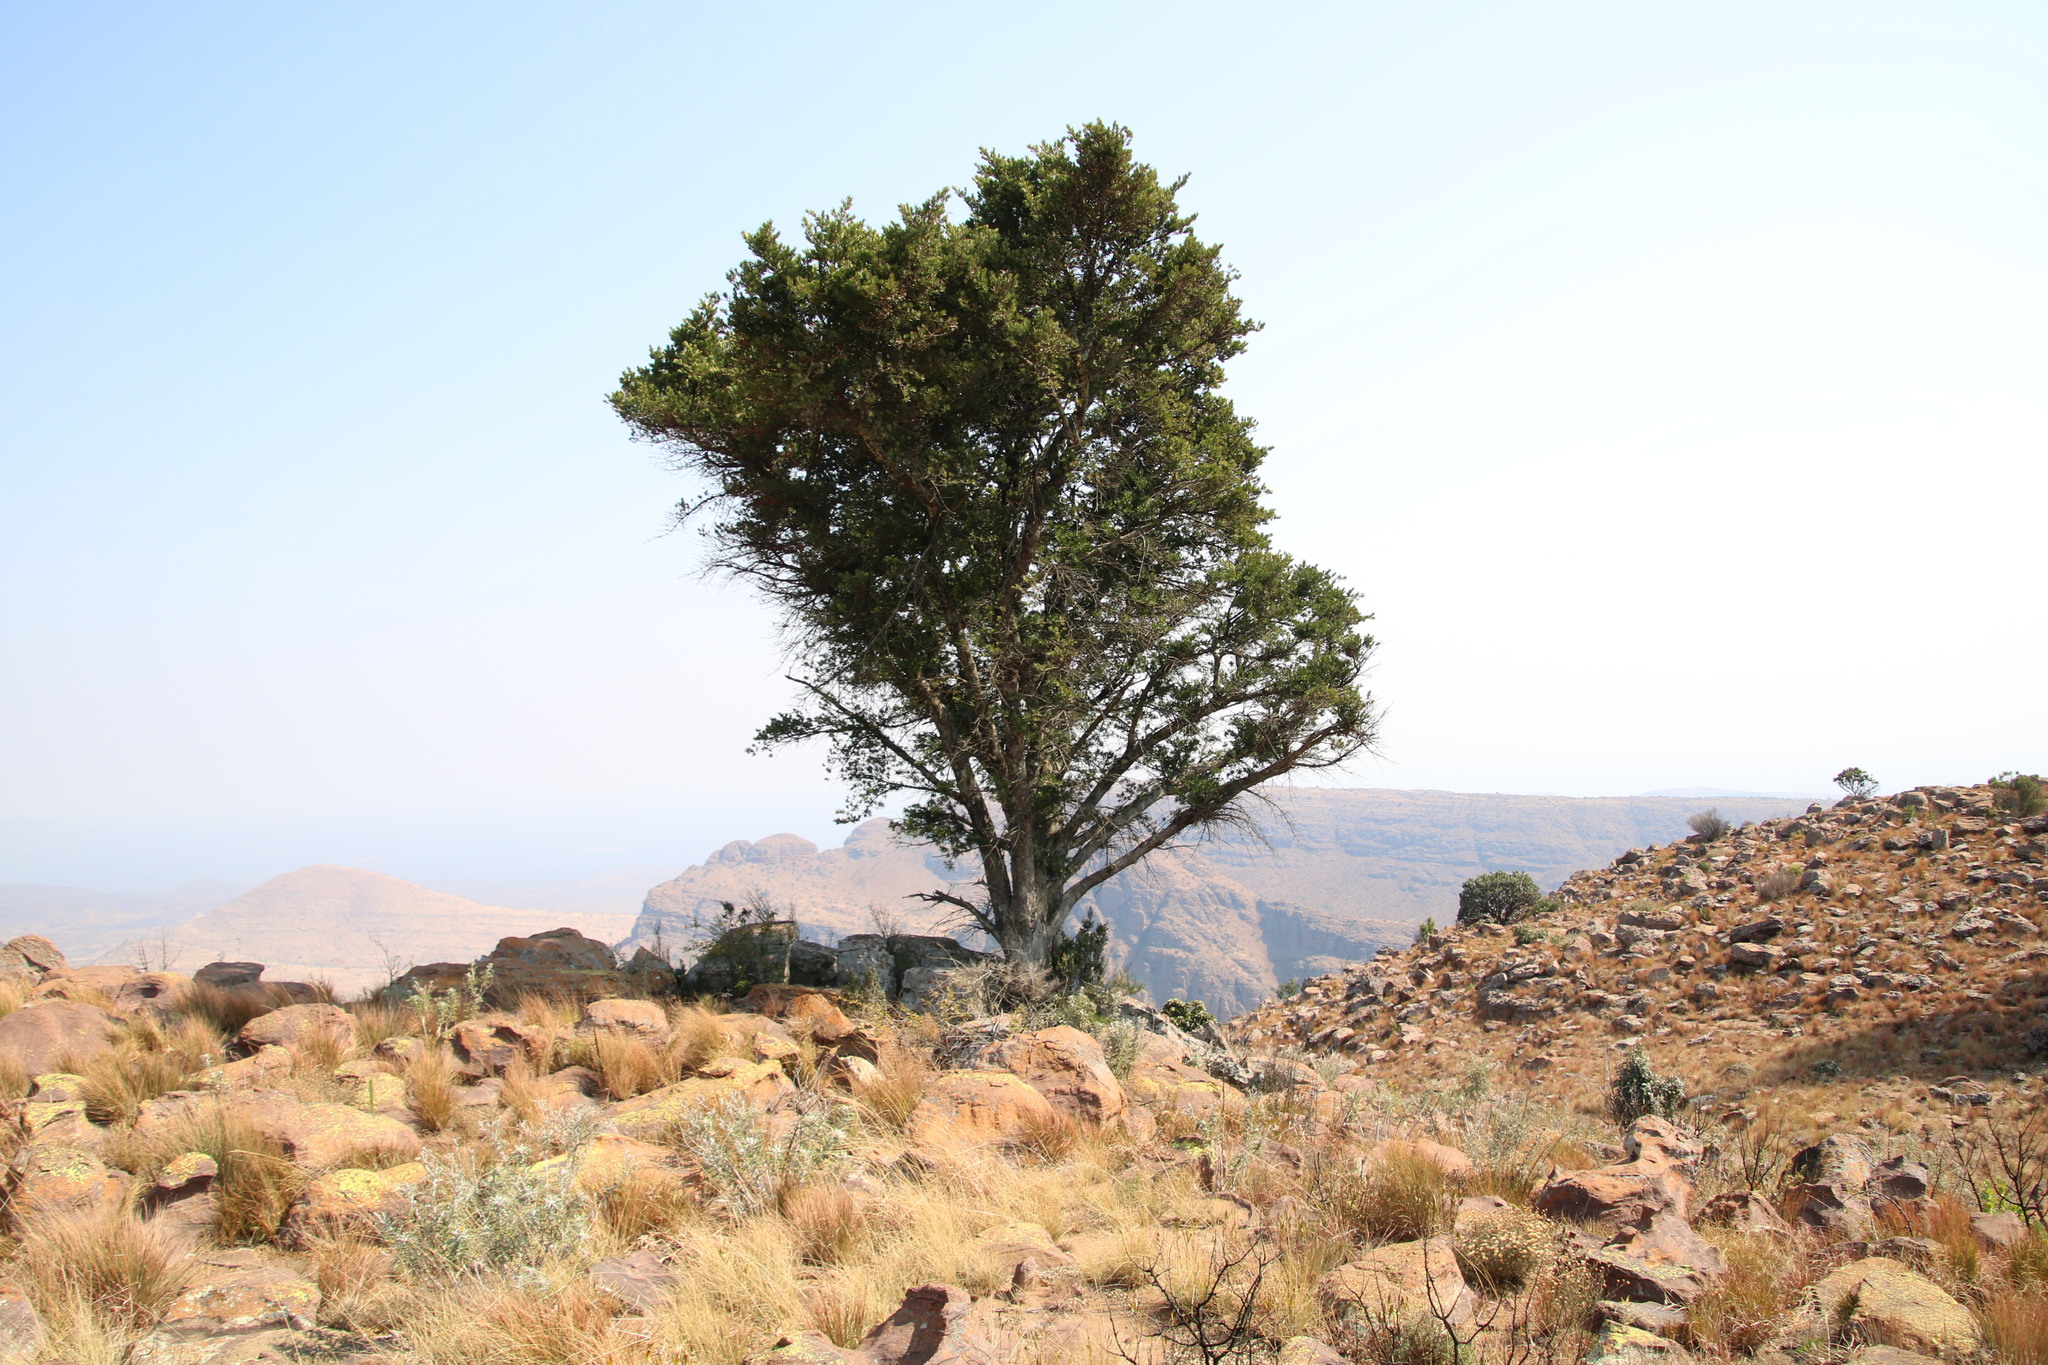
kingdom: Plantae
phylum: Tracheophyta
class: Pinopsida
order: Pinales
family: Podocarpaceae
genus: Podocarpus
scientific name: Podocarpus latifolius
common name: True yellowwood
